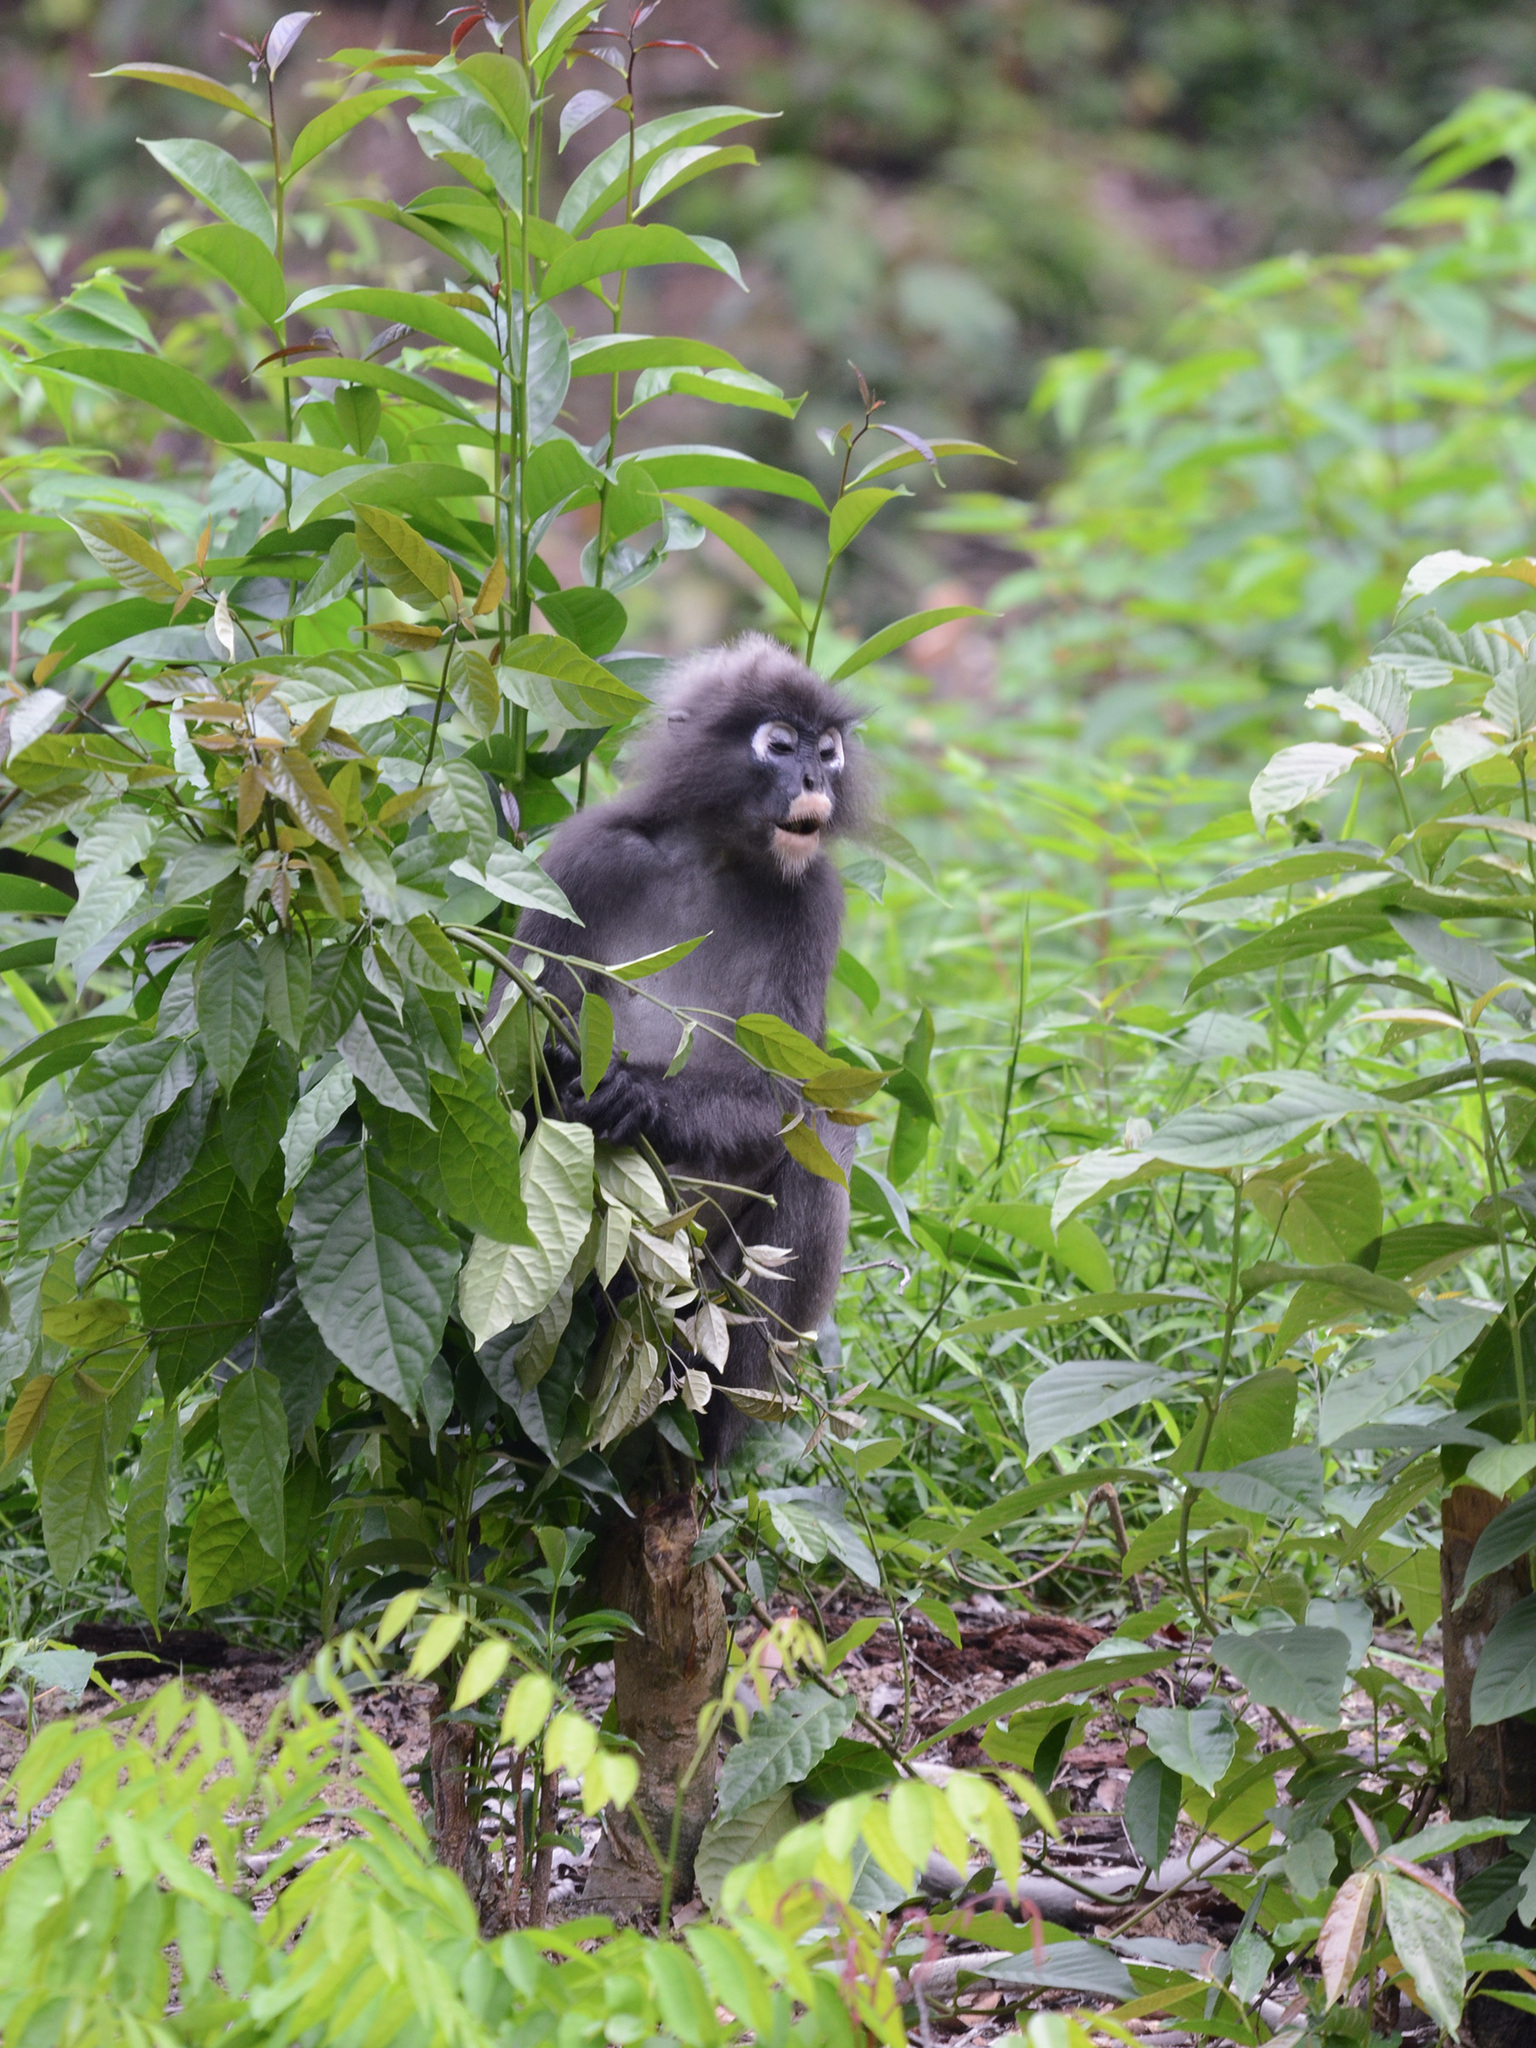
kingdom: Animalia
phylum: Chordata
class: Mammalia
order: Primates
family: Cercopithecidae
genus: Trachypithecus
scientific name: Trachypithecus obscurus
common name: Dusky leaf-monkey
